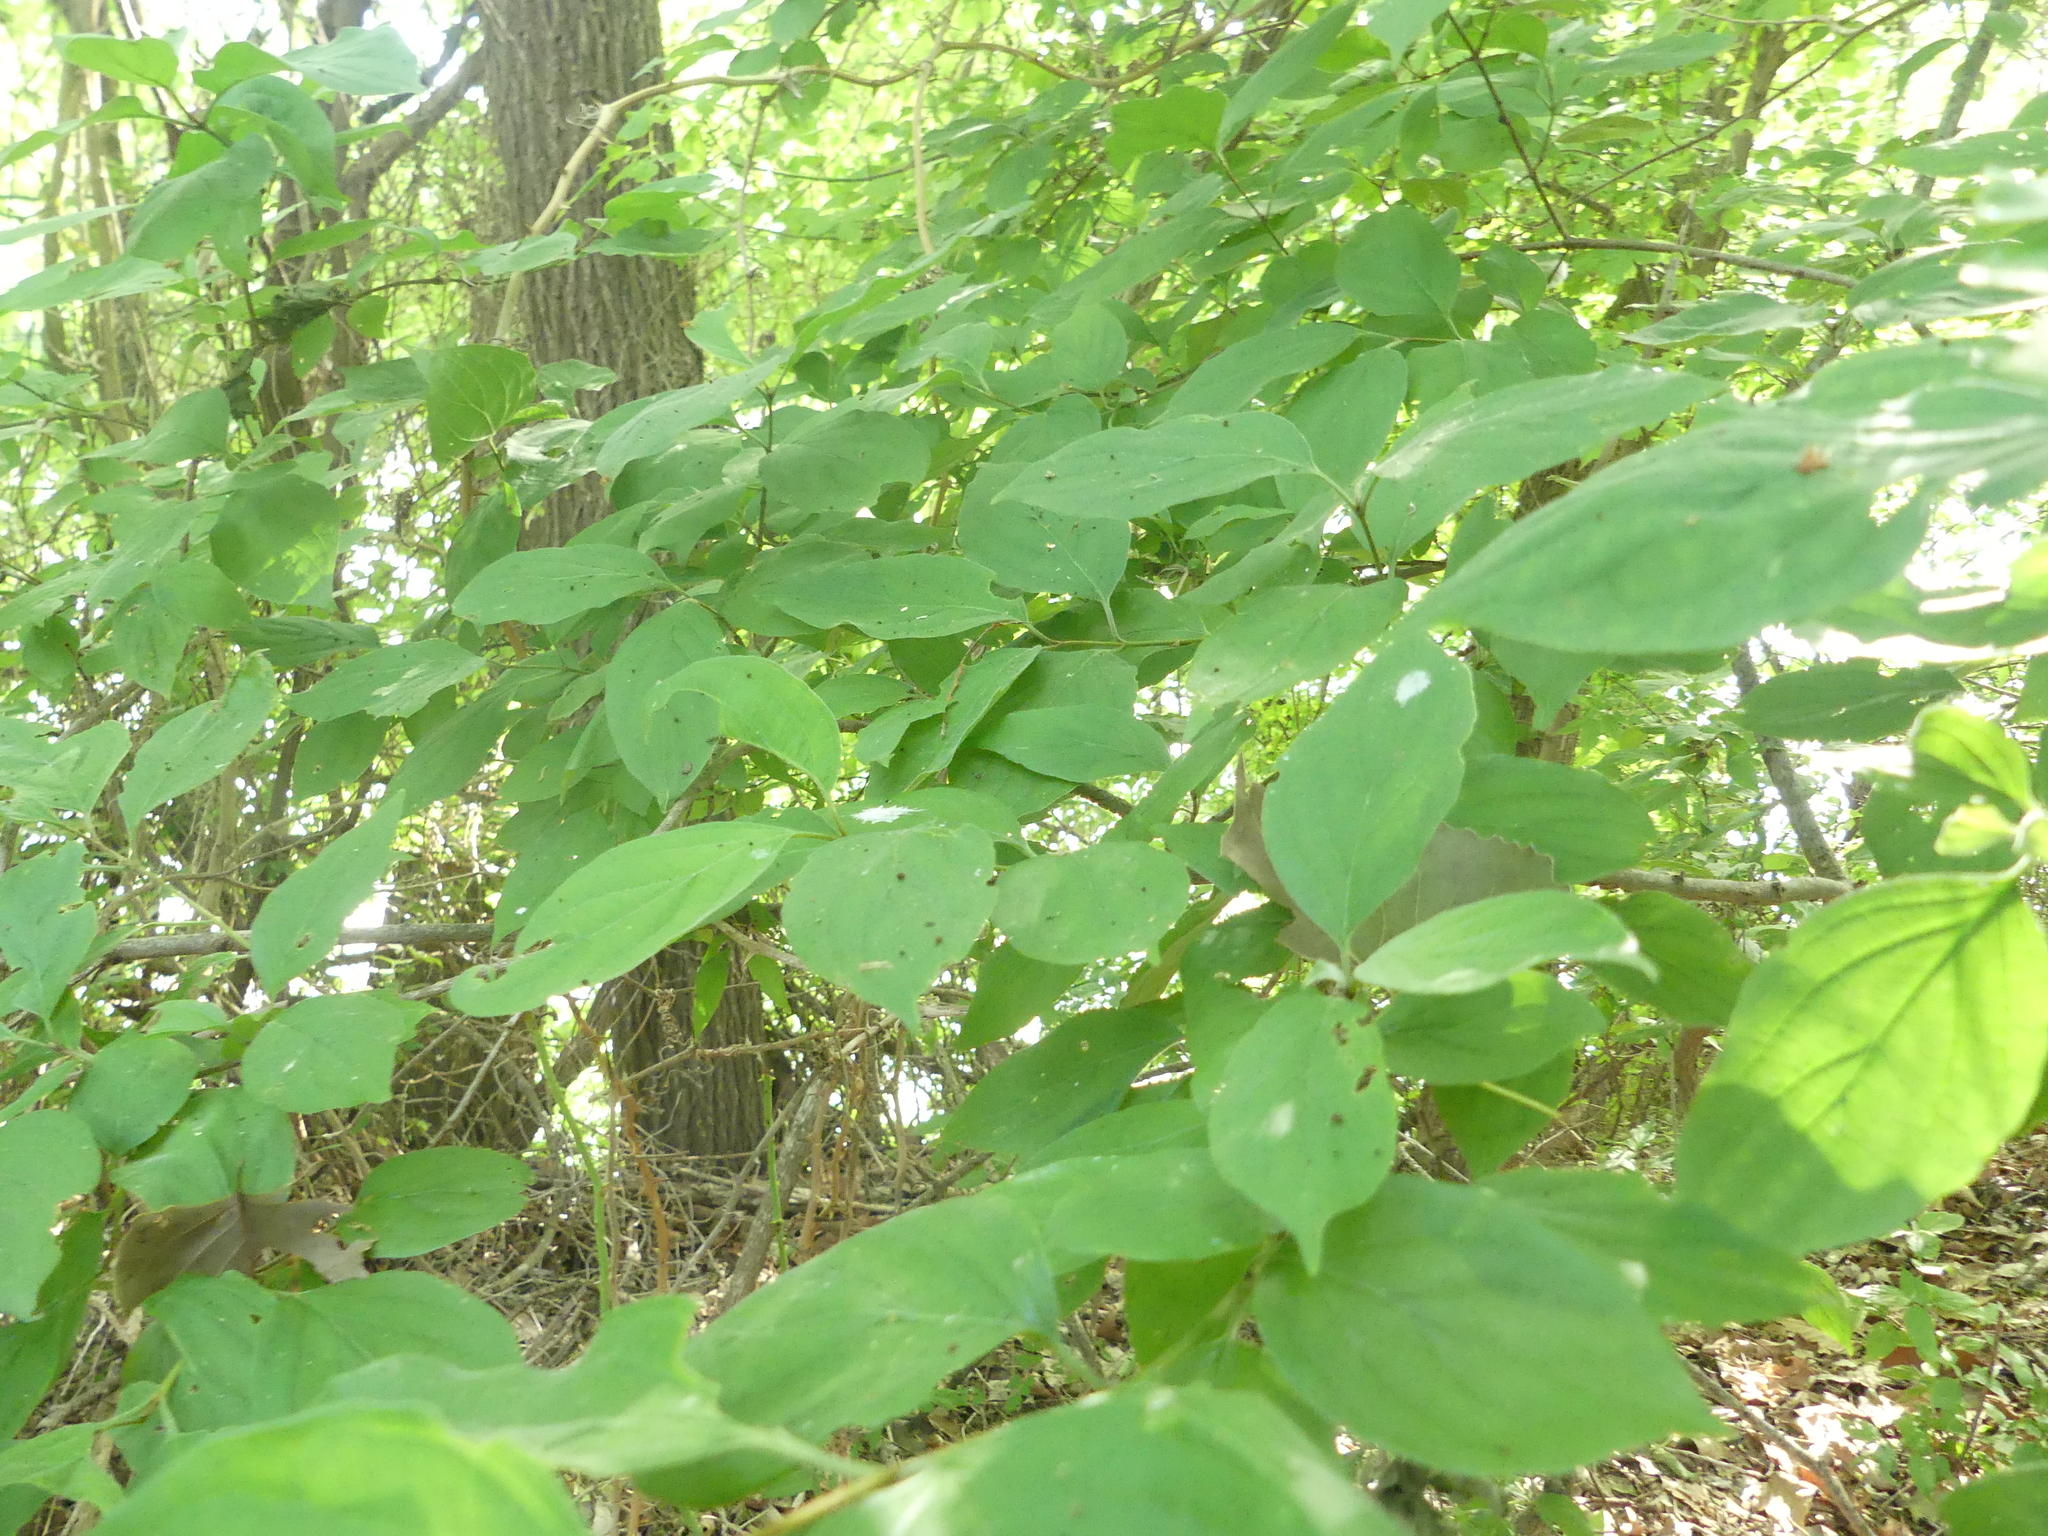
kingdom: Plantae
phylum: Tracheophyta
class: Magnoliopsida
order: Cornales
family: Cornaceae
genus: Cornus
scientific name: Cornus drummondii
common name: Rough-leaf dogwood
